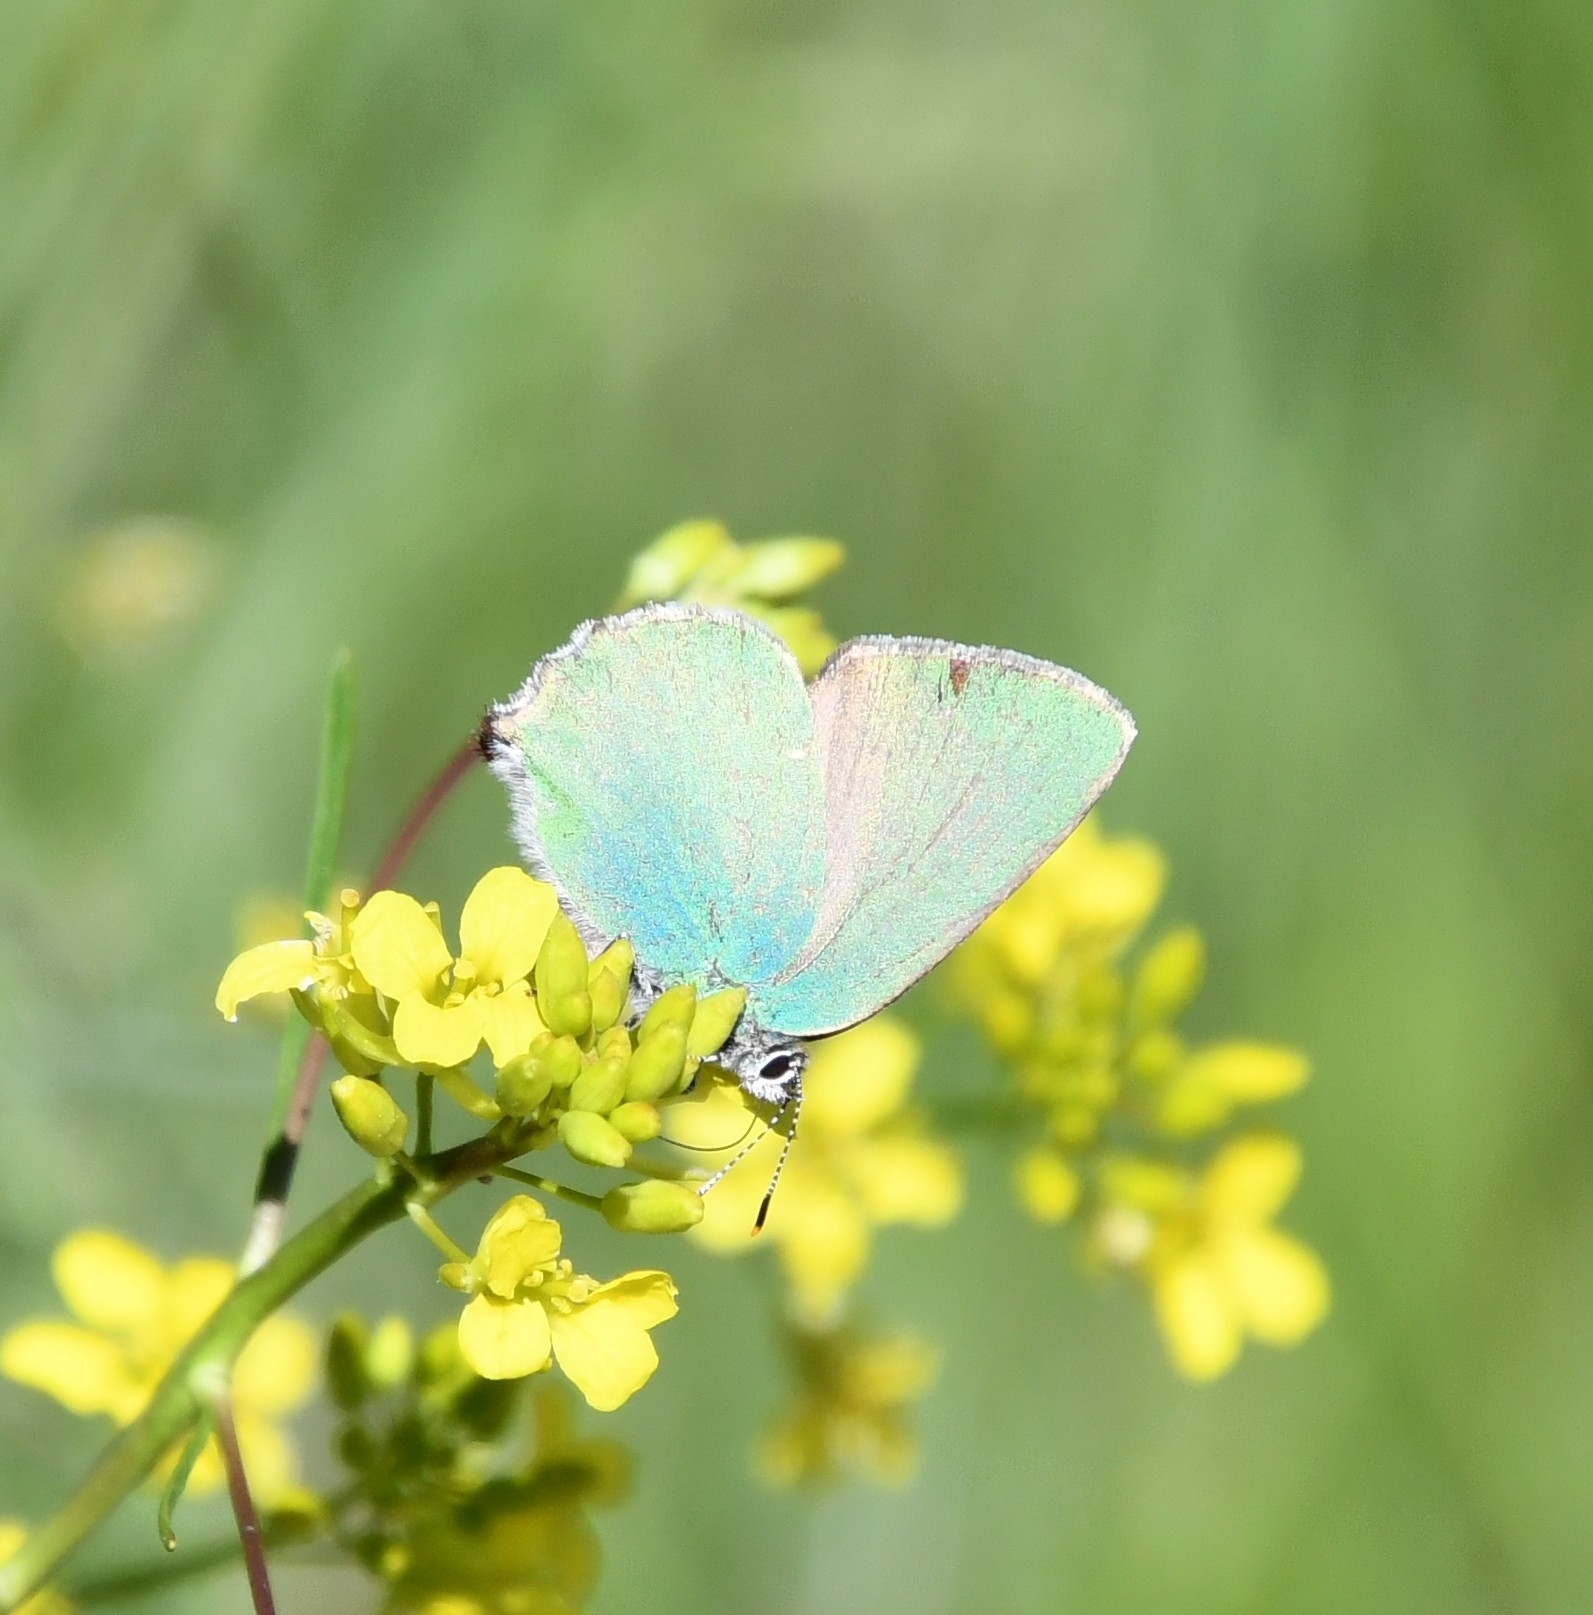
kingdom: Animalia
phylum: Arthropoda
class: Insecta
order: Lepidoptera
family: Lycaenidae
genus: Callophrys
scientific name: Callophrys rubi
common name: Green hairstreak
